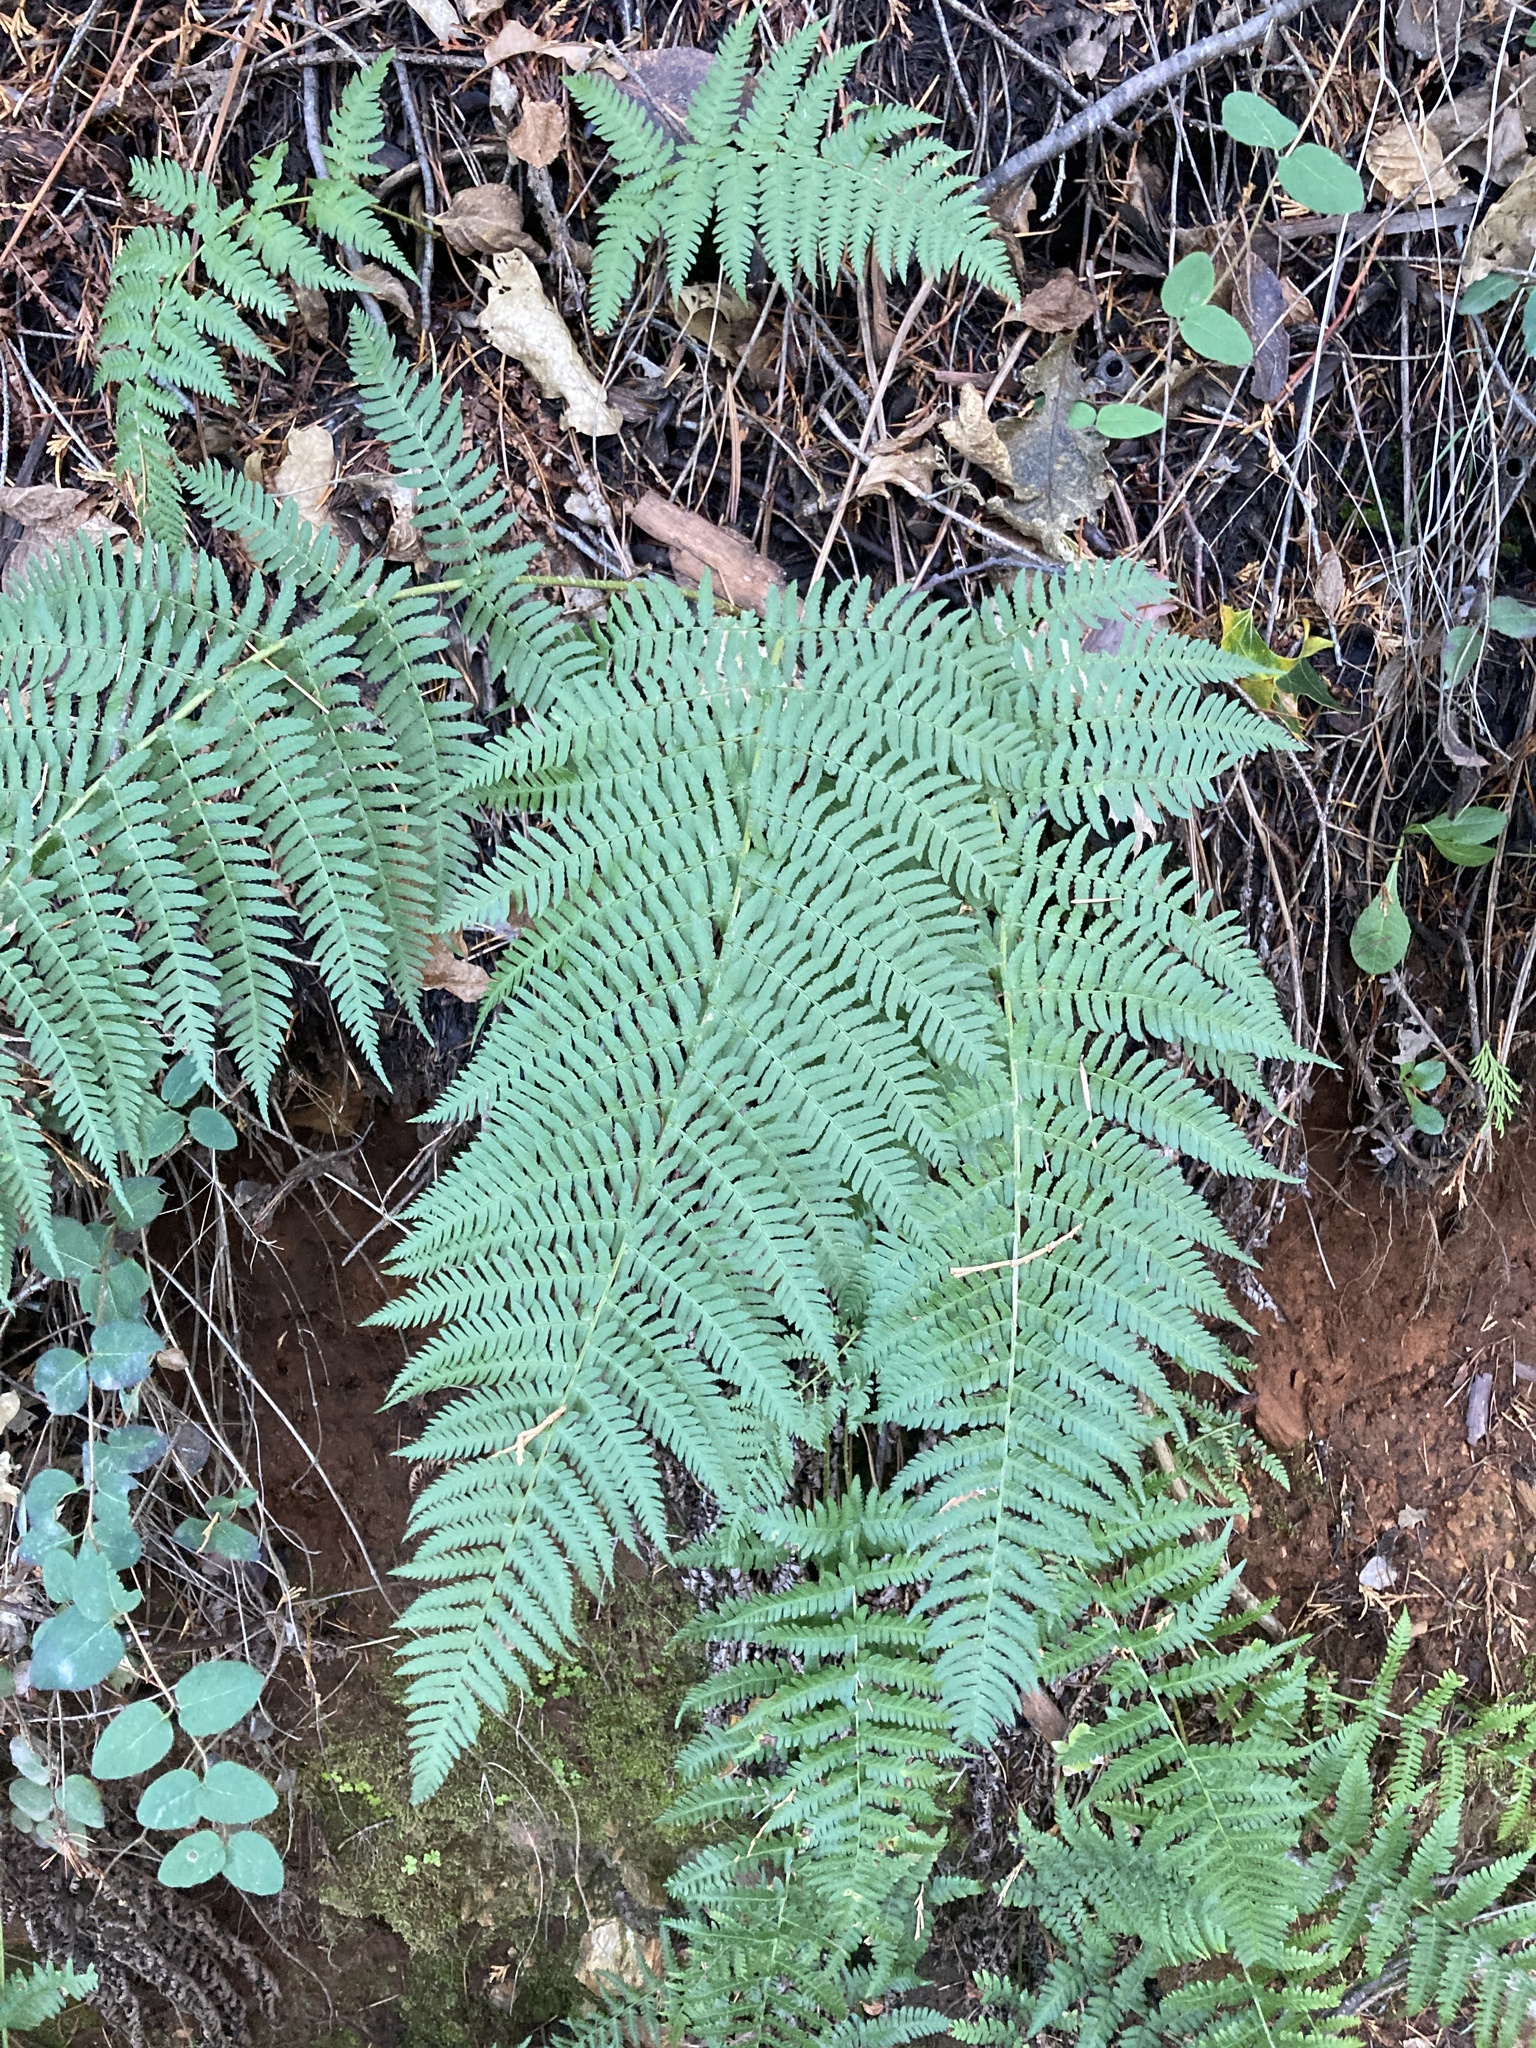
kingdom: Plantae
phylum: Tracheophyta
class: Polypodiopsida
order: Polypodiales
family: Dryopteridaceae
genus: Dryopteris
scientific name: Dryopteris arguta
